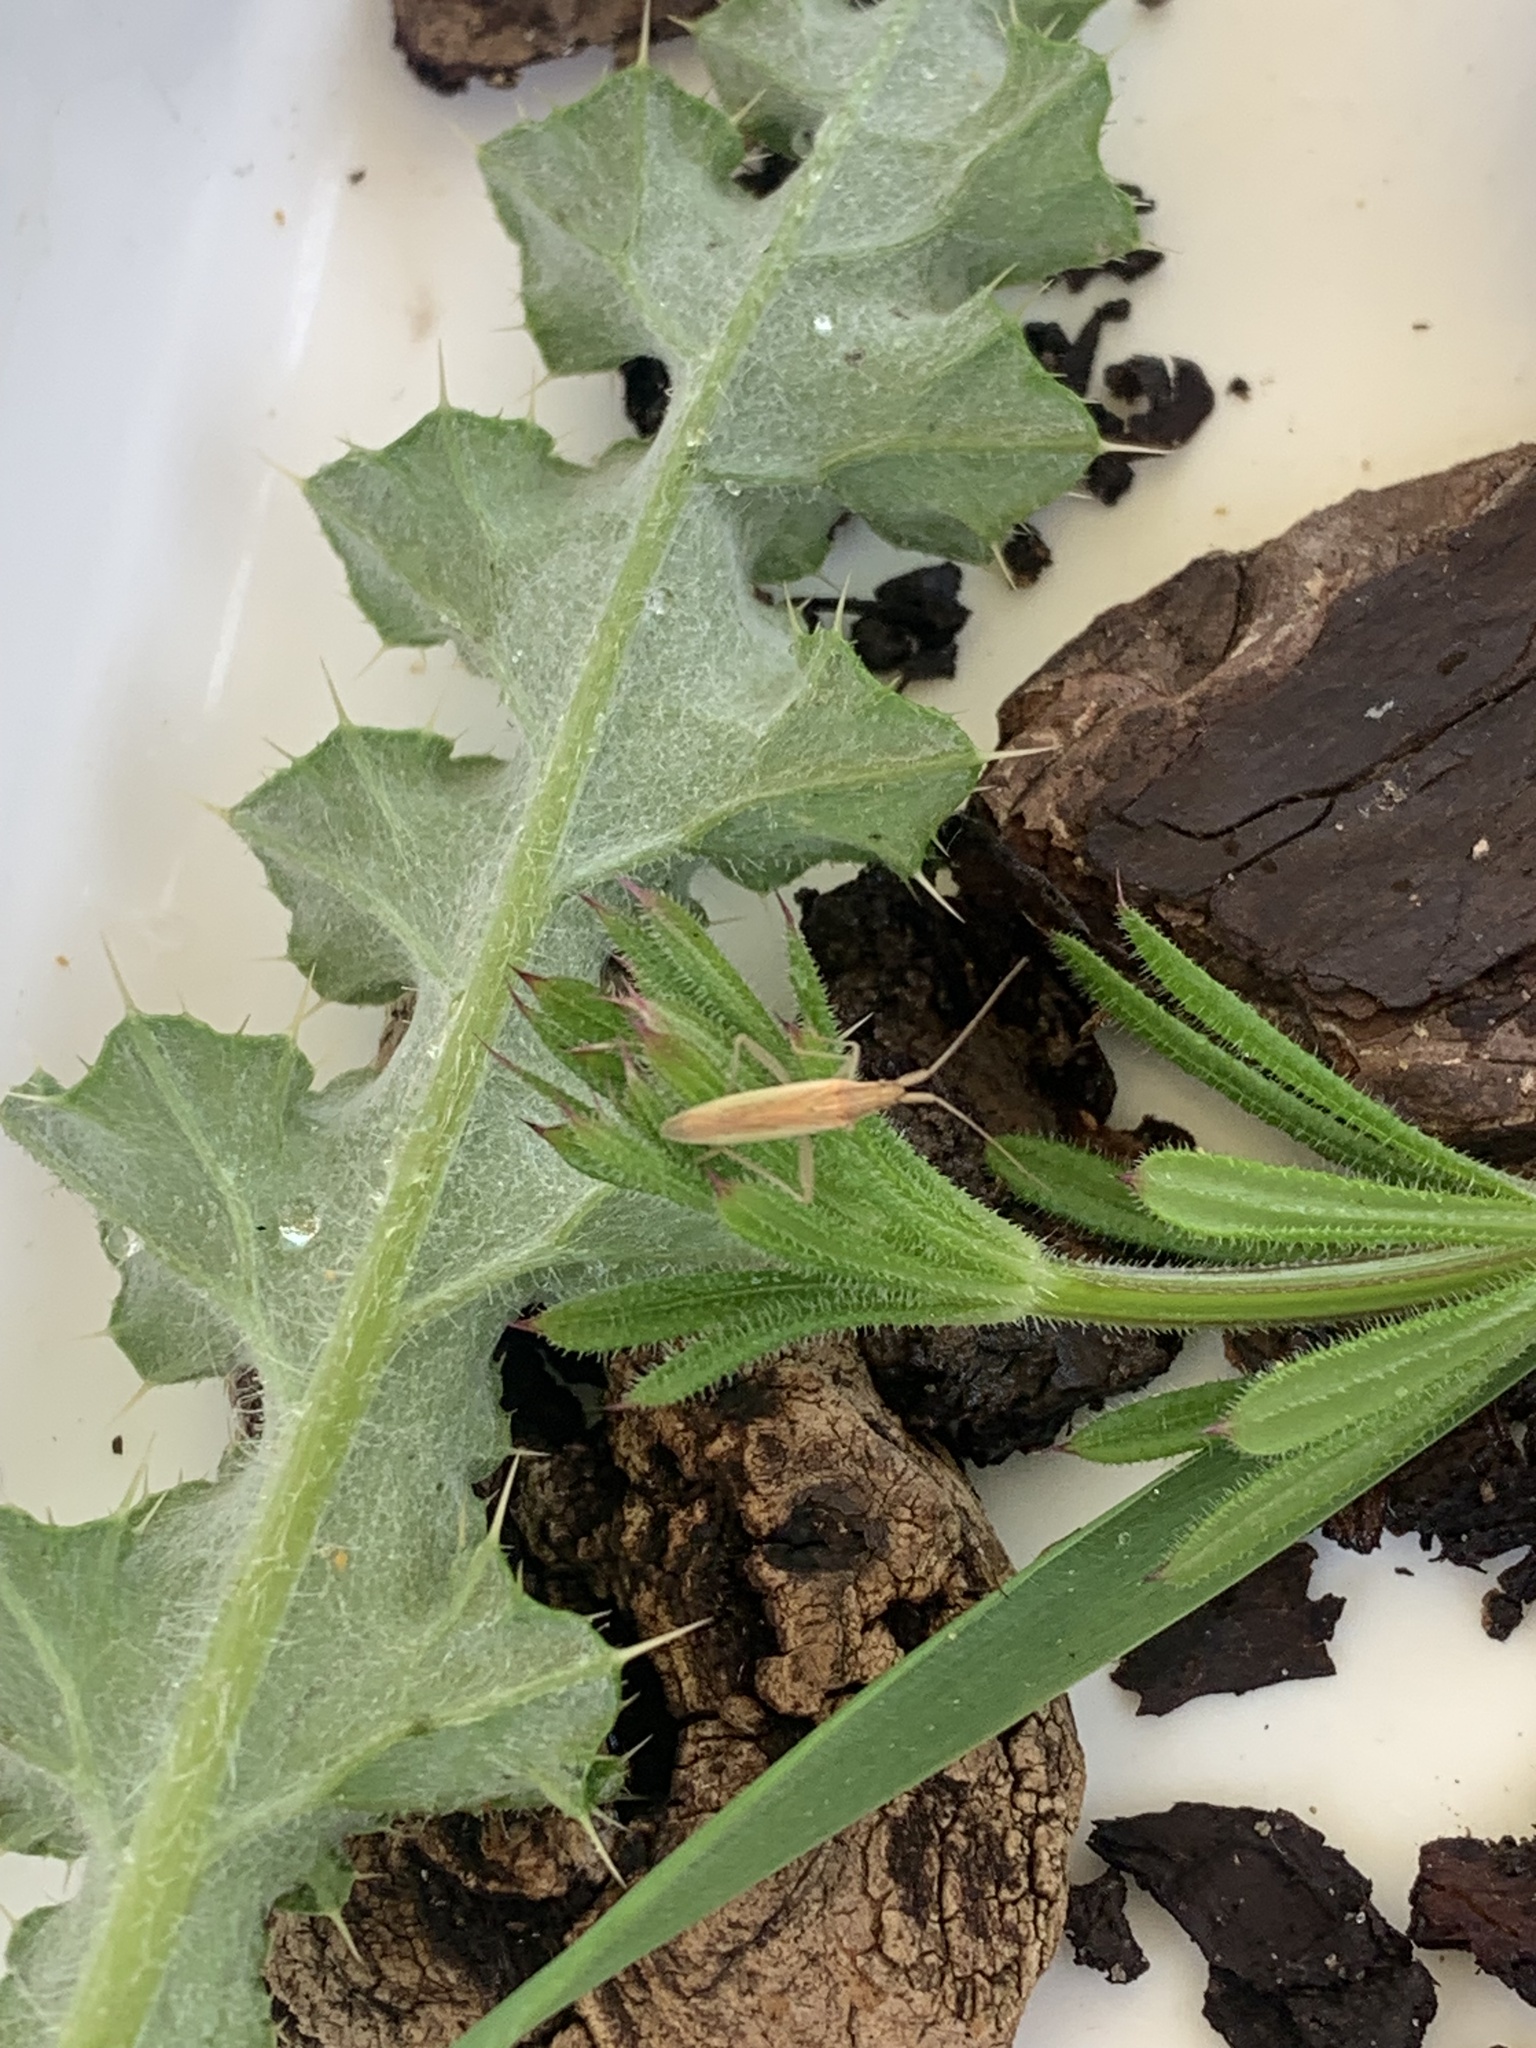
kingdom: Animalia
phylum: Arthropoda
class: Insecta
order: Hemiptera
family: Miridae
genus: Stenodema
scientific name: Stenodema laevigata
